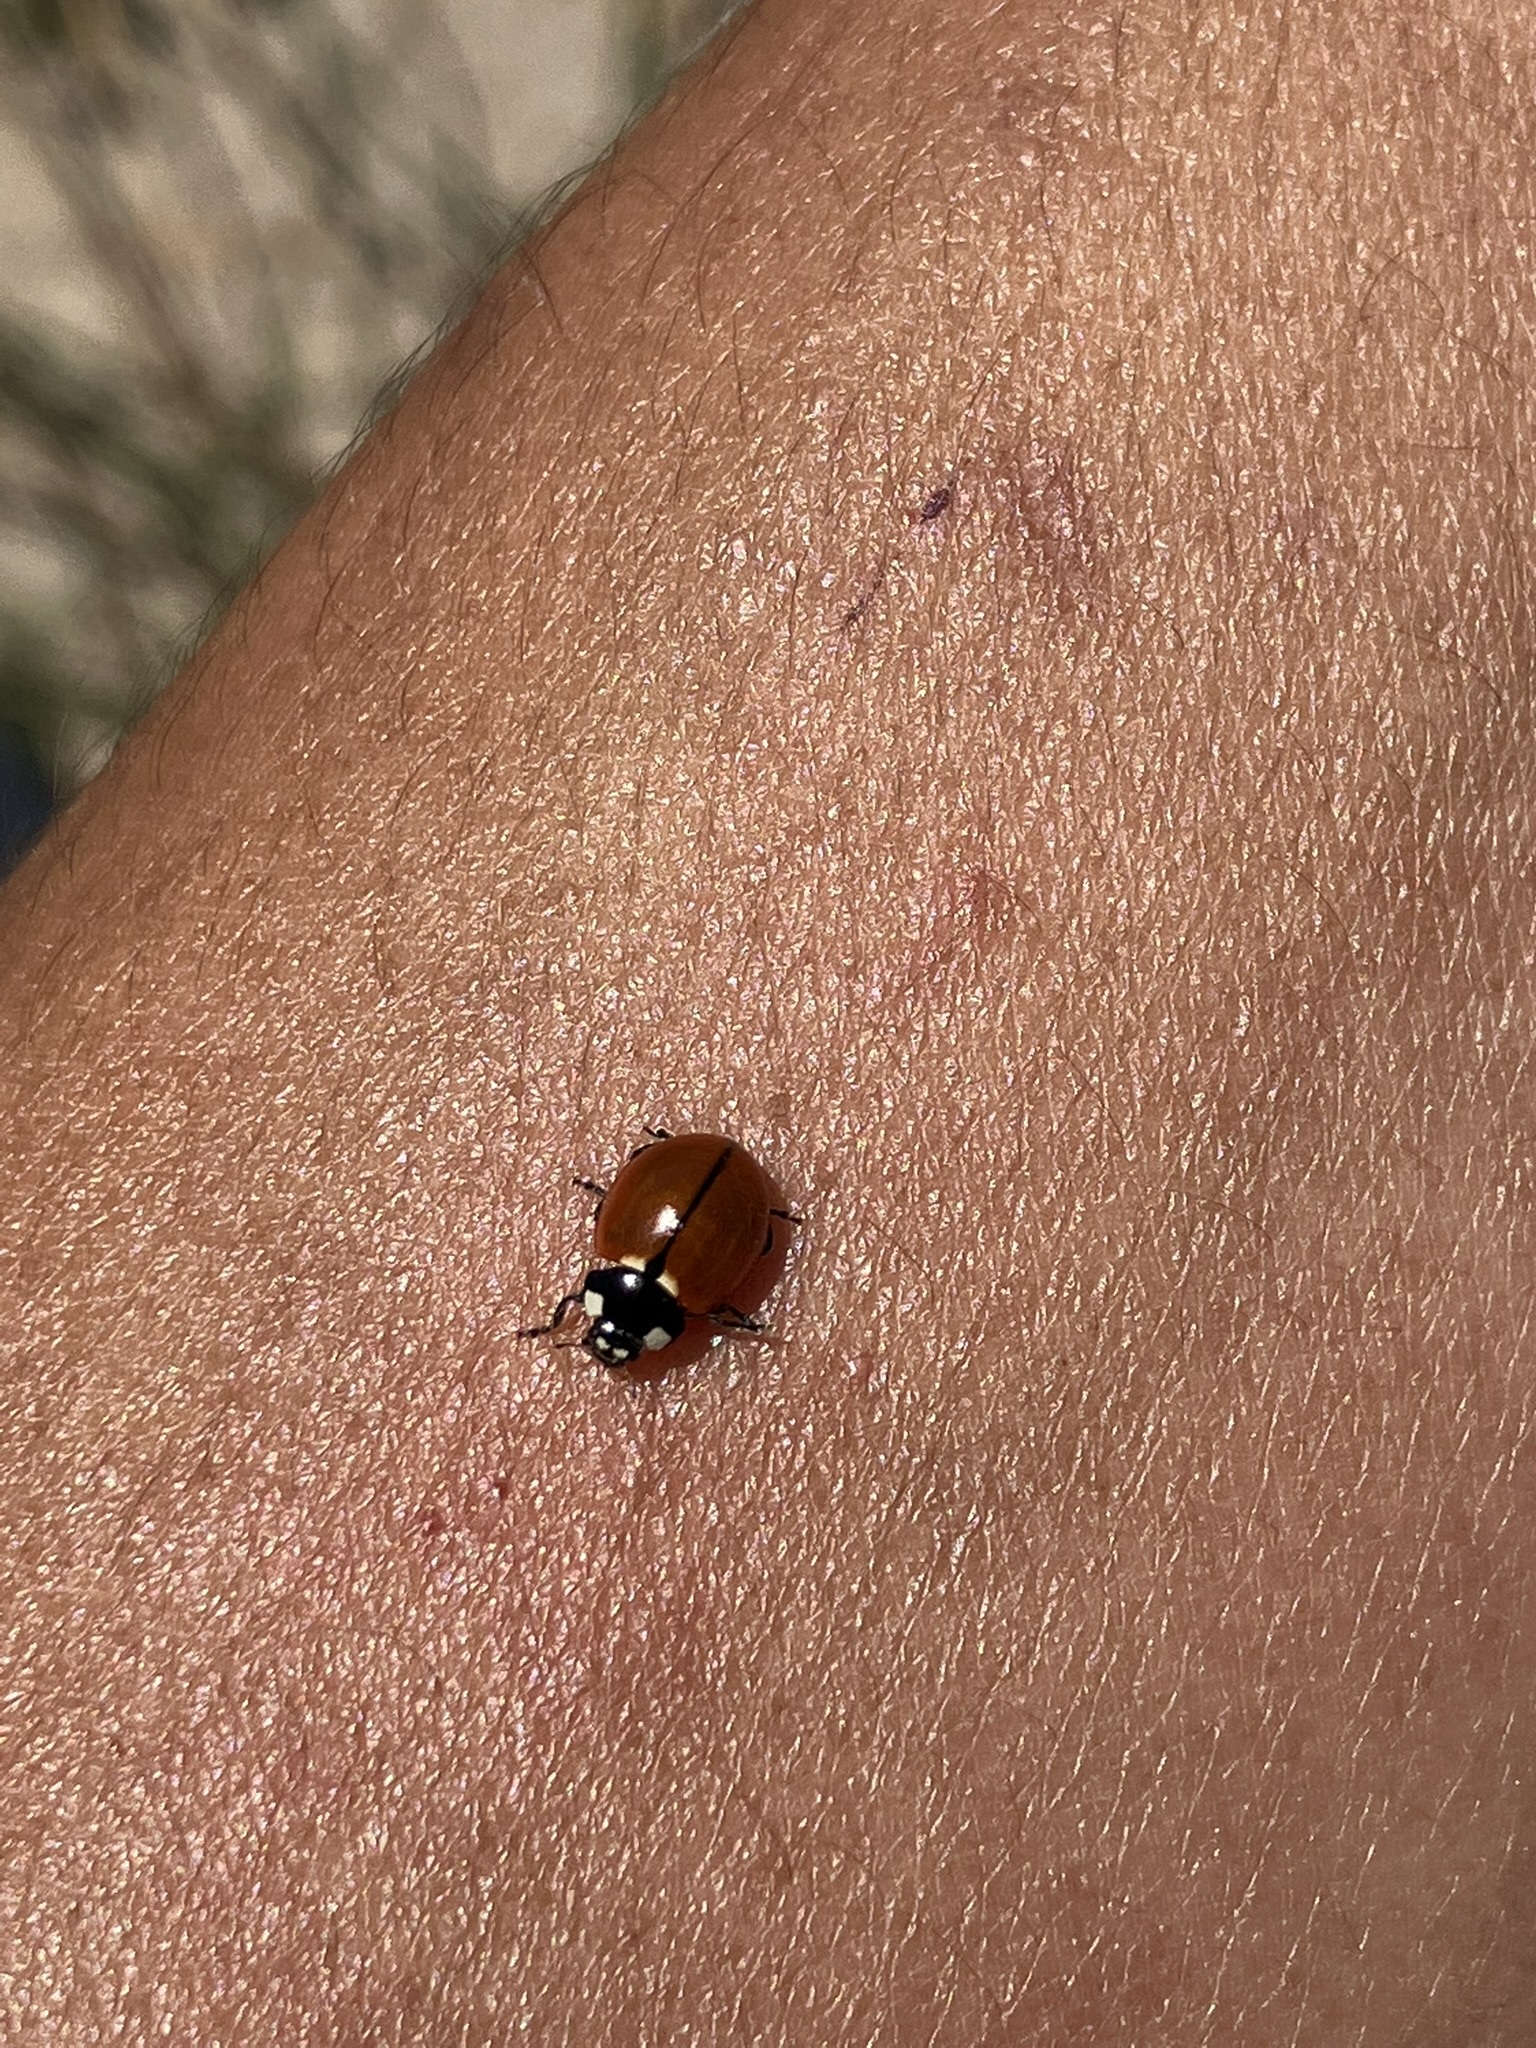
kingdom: Animalia
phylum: Arthropoda
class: Insecta
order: Coleoptera
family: Coccinellidae
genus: Coccinella
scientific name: Coccinella californica
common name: Lady beetle
